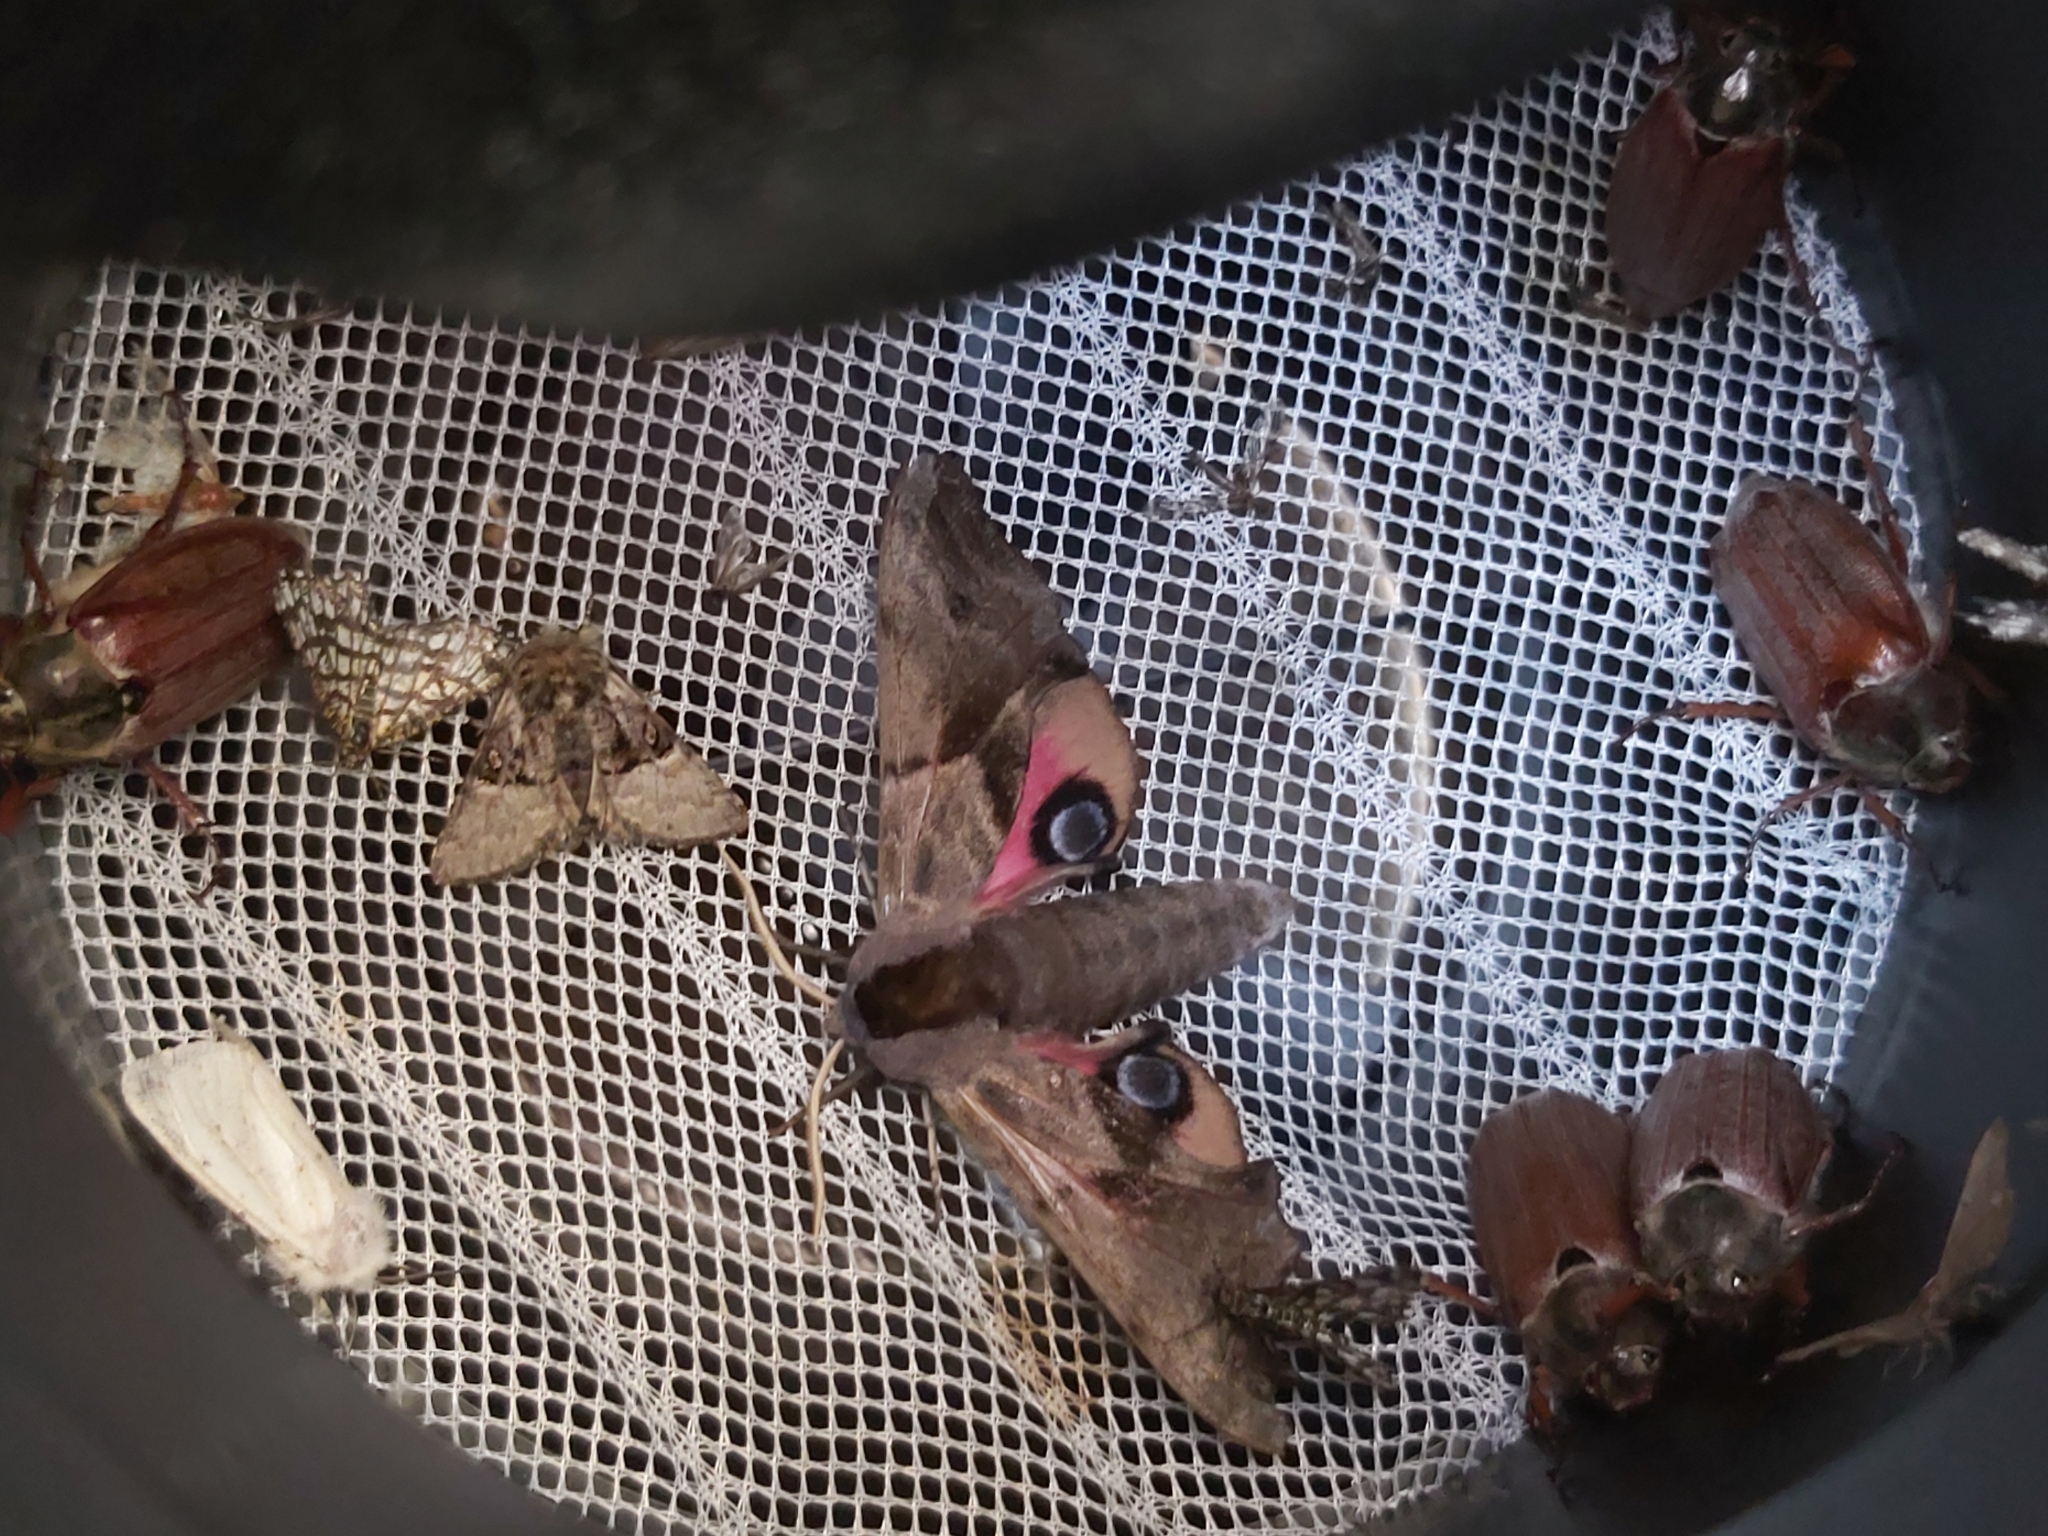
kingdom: Animalia
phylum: Arthropoda
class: Insecta
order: Lepidoptera
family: Noctuidae
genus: Colocasia
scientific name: Colocasia coryli
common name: Nut-tree tussock
